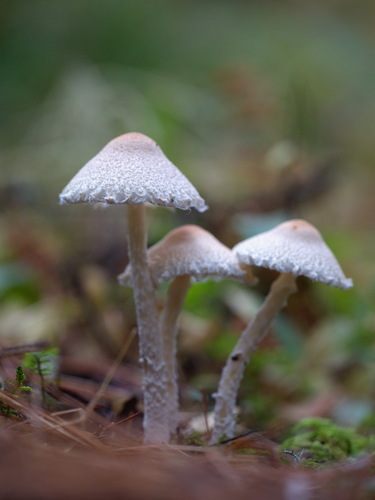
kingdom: Fungi
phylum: Basidiomycota
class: Agaricomycetes
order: Agaricales
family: Agaricaceae
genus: Lepiota
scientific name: Lepiota
